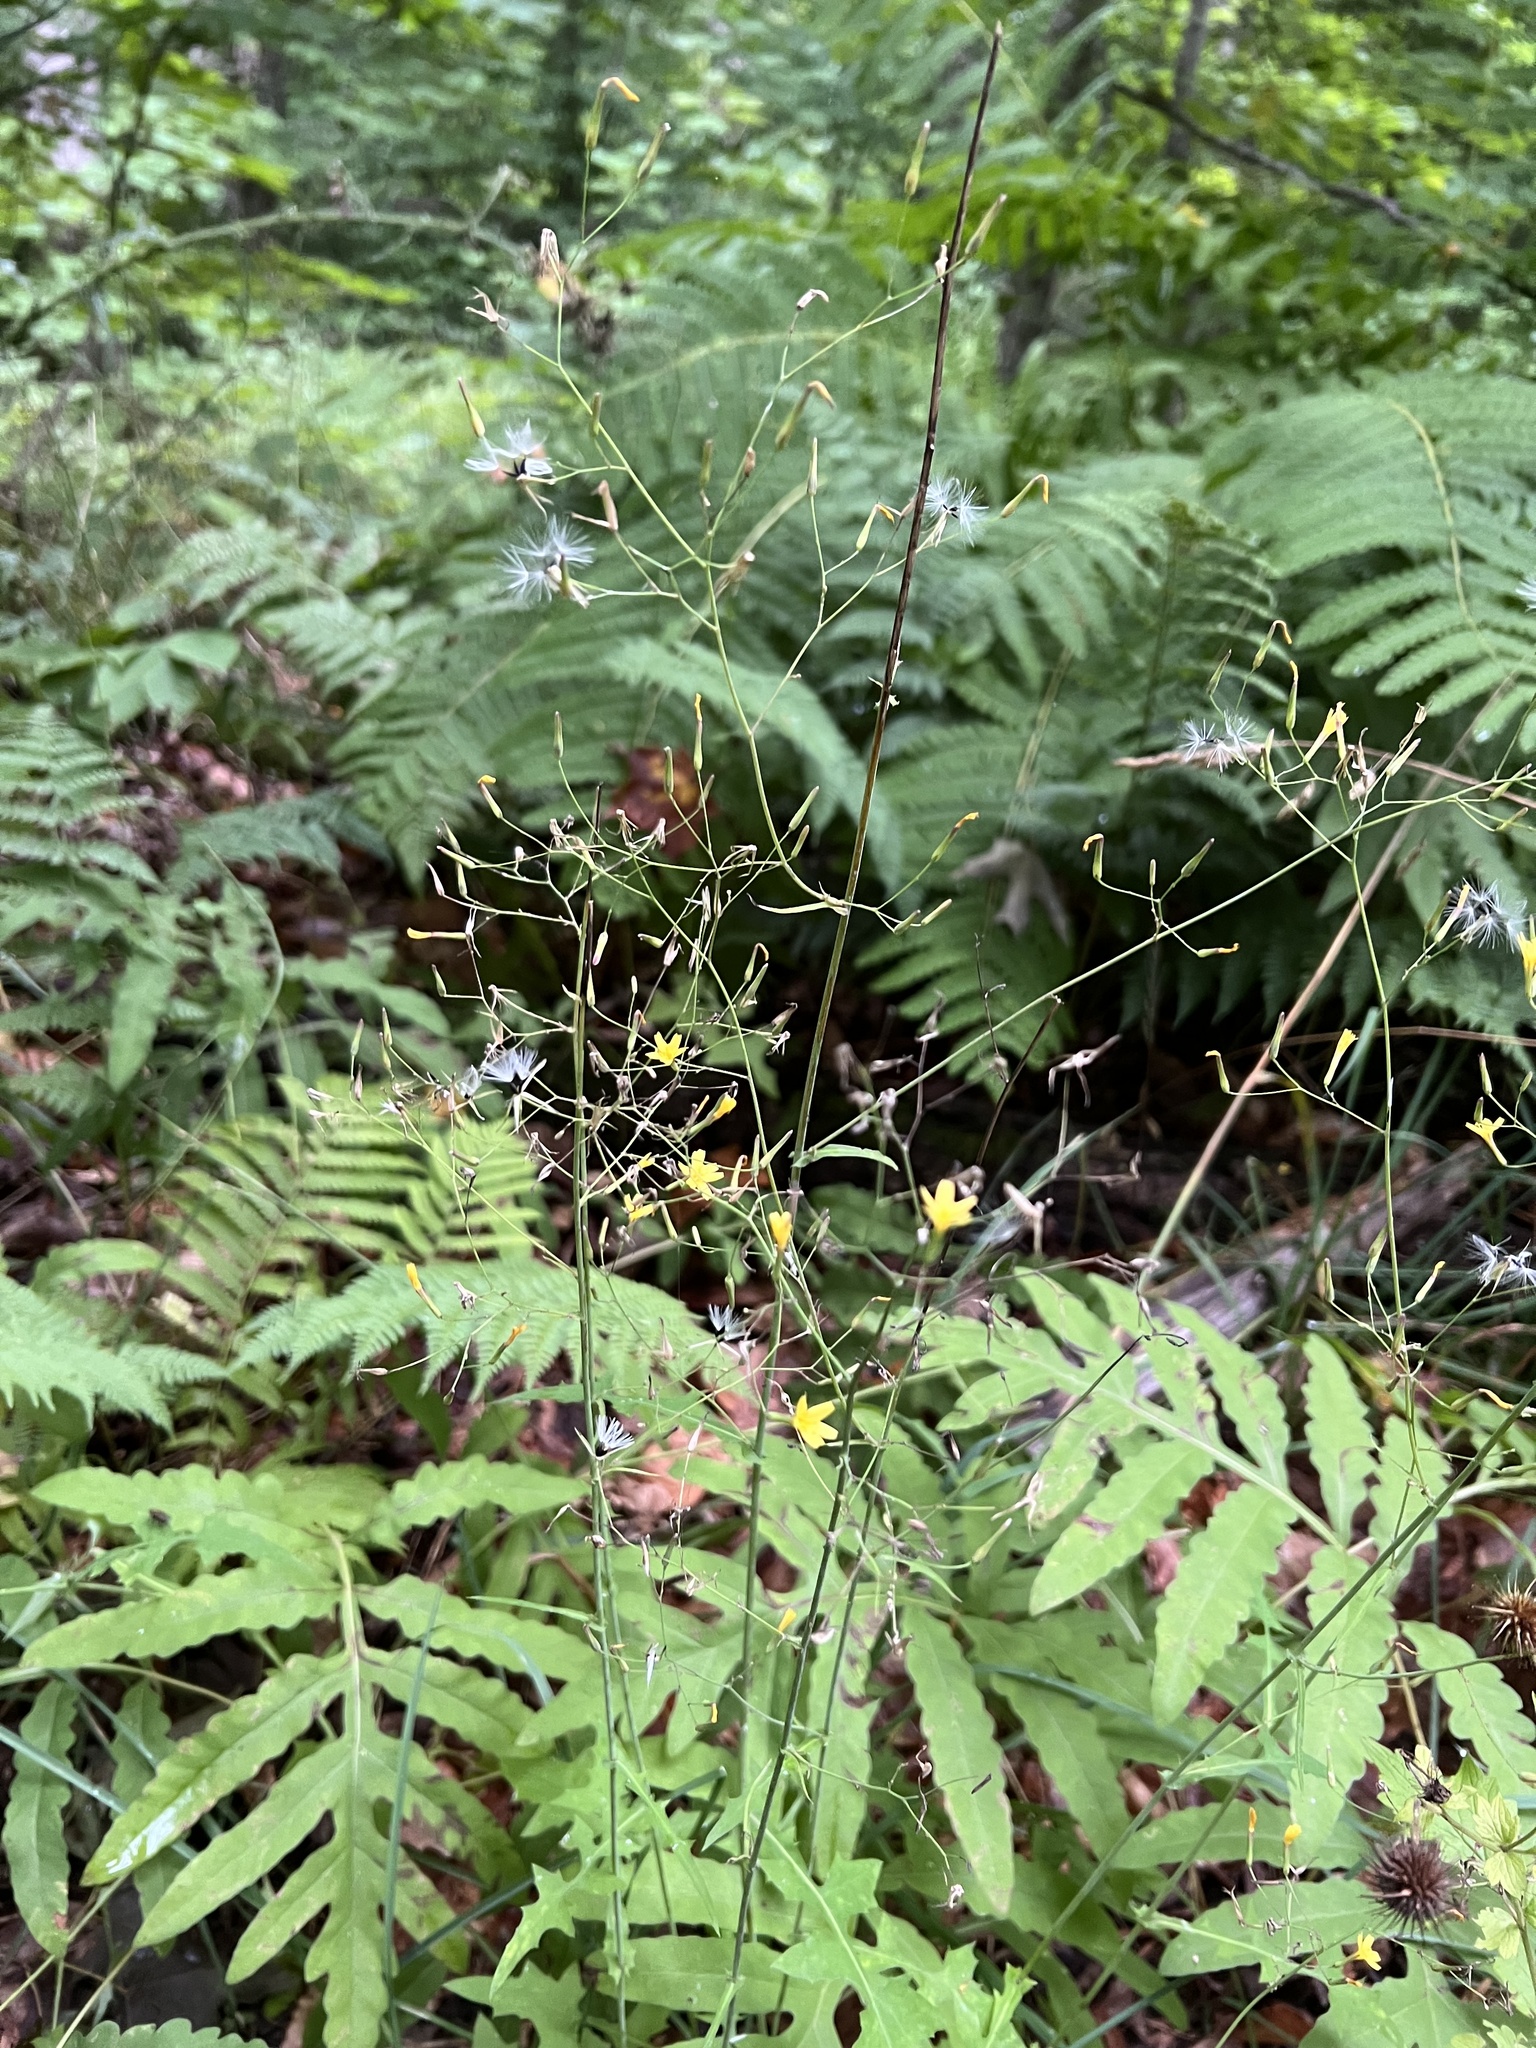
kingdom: Plantae
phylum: Tracheophyta
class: Magnoliopsida
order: Asterales
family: Asteraceae
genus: Mycelis
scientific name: Mycelis muralis
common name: Wall lettuce
